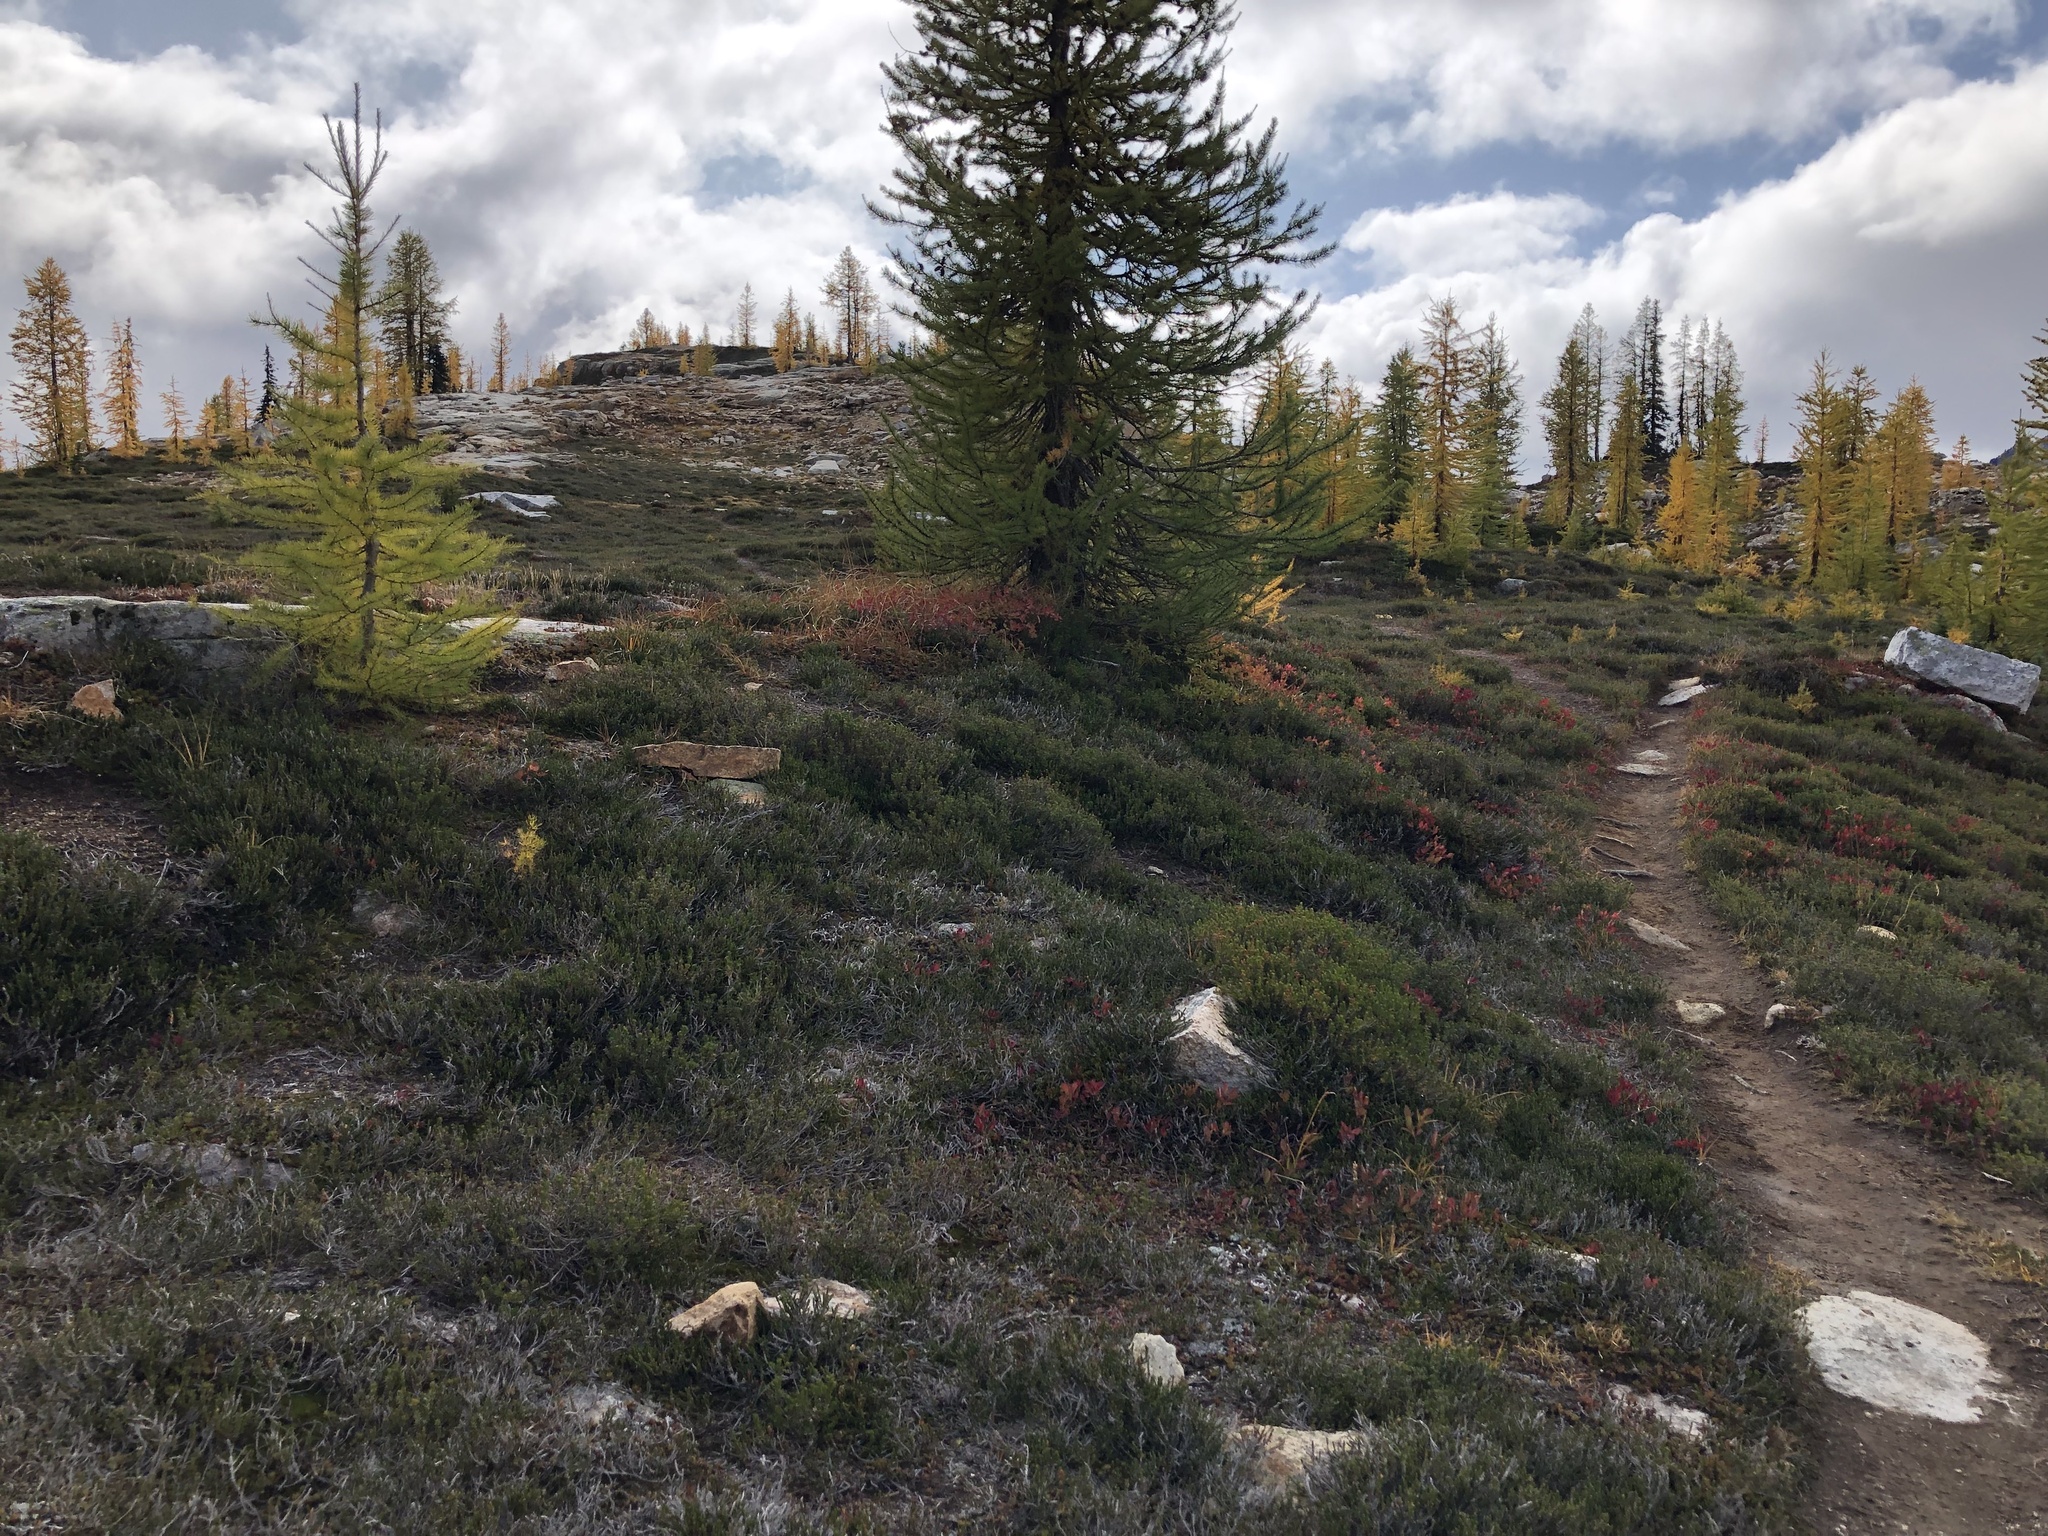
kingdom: Plantae
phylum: Tracheophyta
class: Pinopsida
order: Pinales
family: Pinaceae
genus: Larix
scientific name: Larix lyallii
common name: Alpine larch
